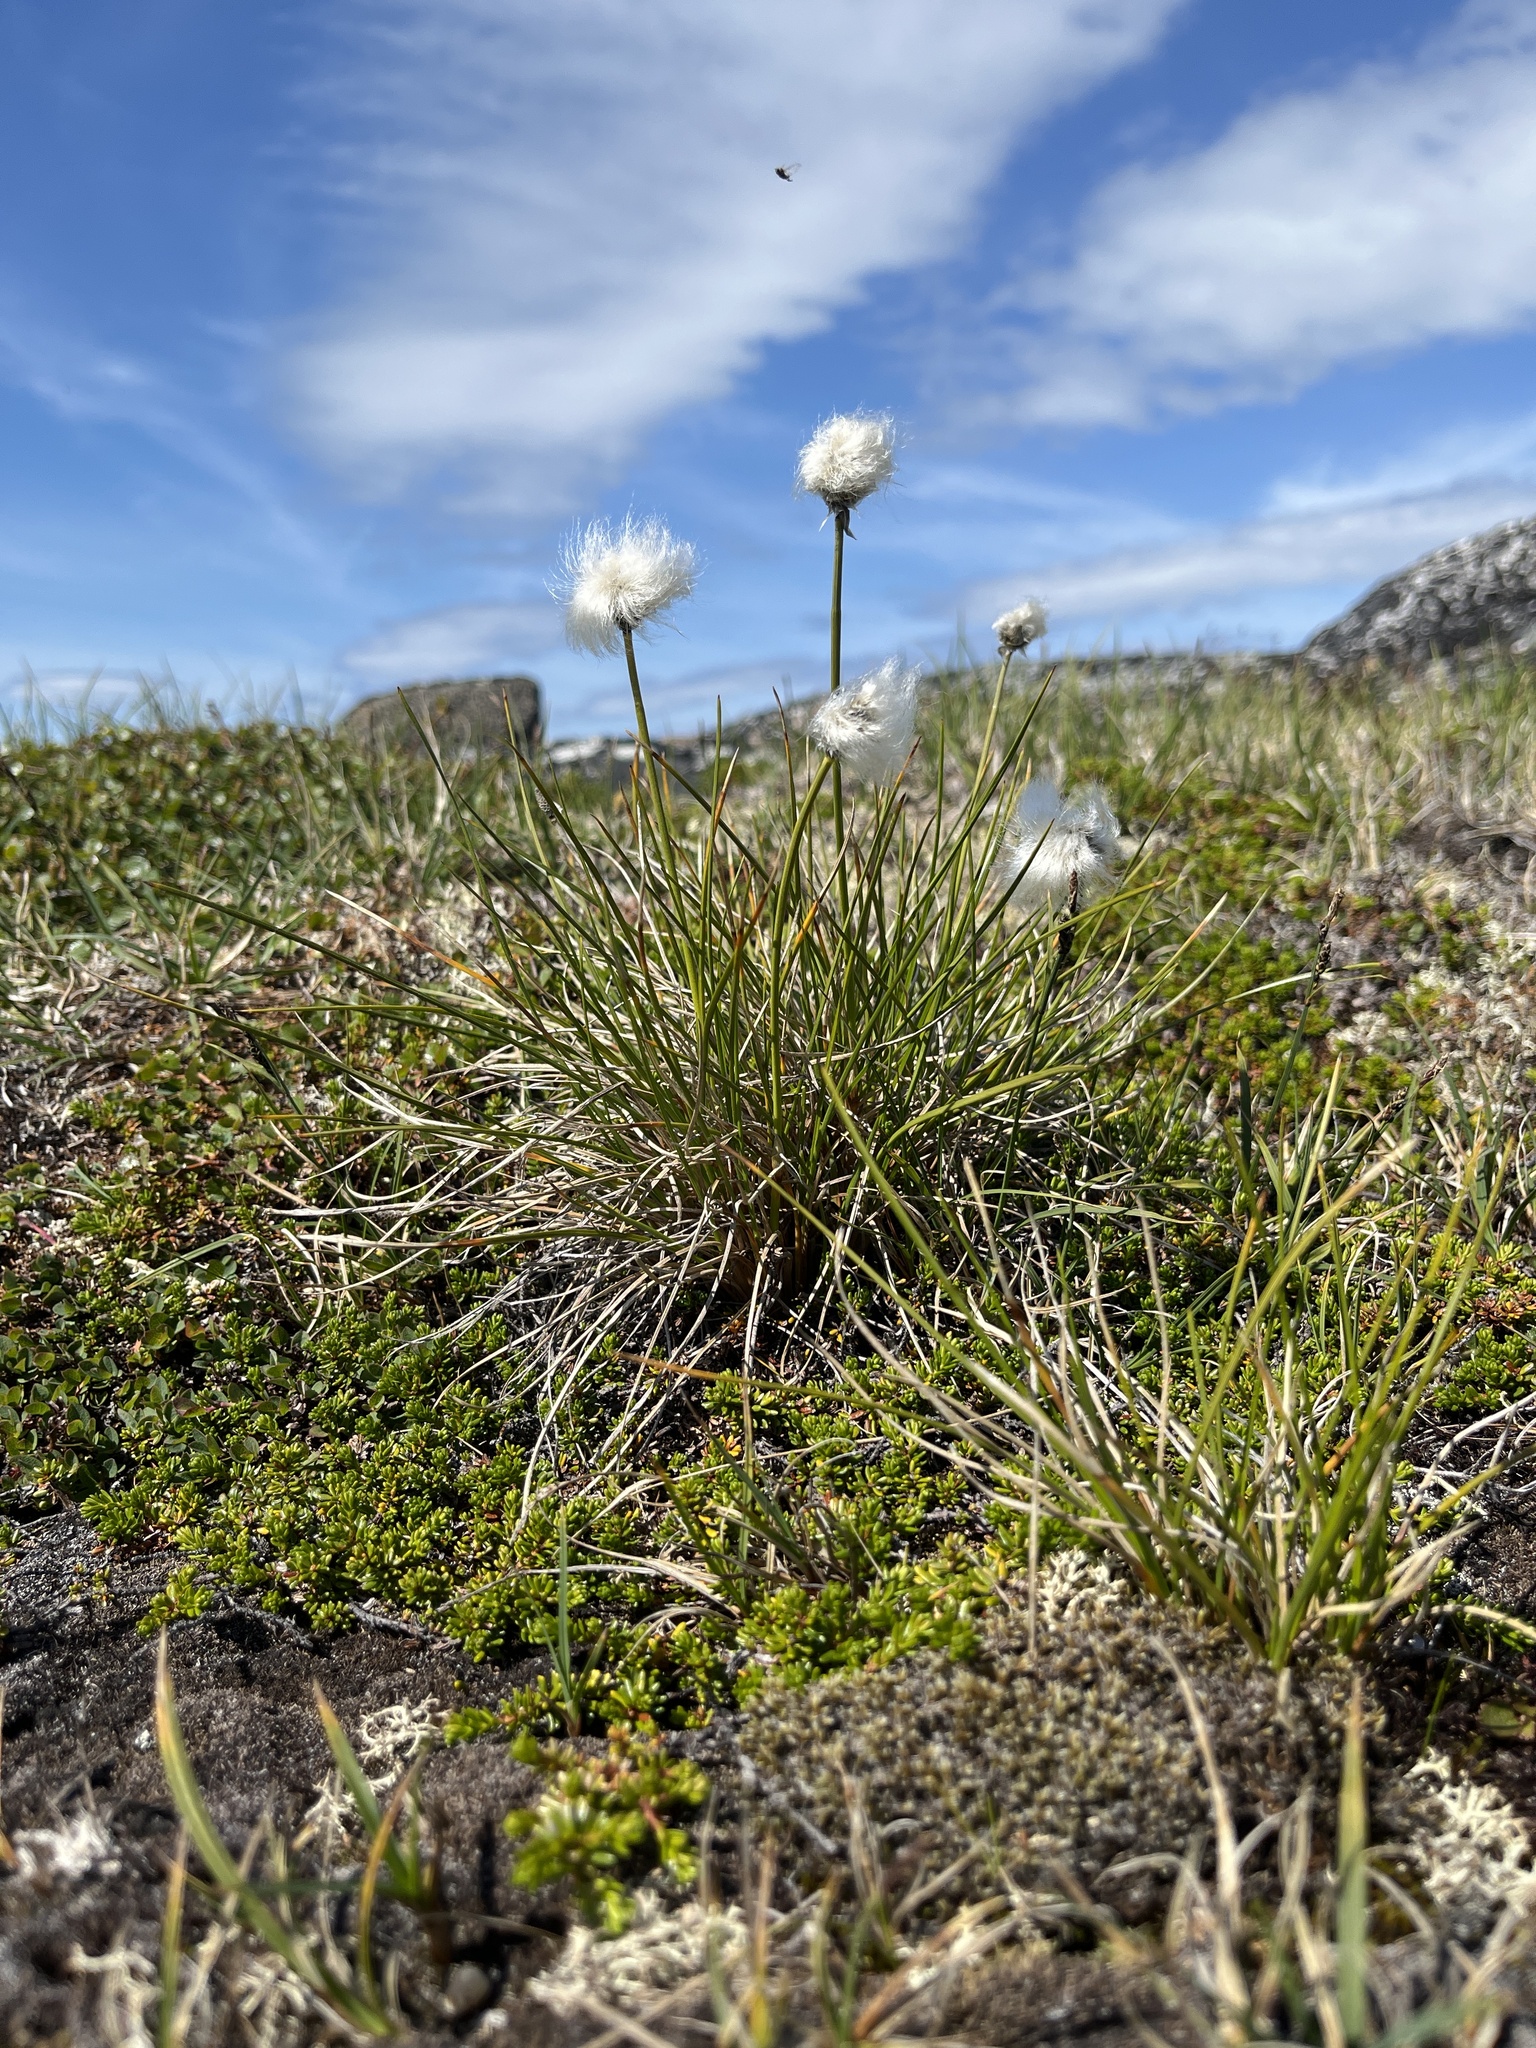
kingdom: Plantae
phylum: Tracheophyta
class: Liliopsida
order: Poales
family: Cyperaceae
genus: Eriophorum
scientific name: Eriophorum vaginatum
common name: Hare's-tail cottongrass
